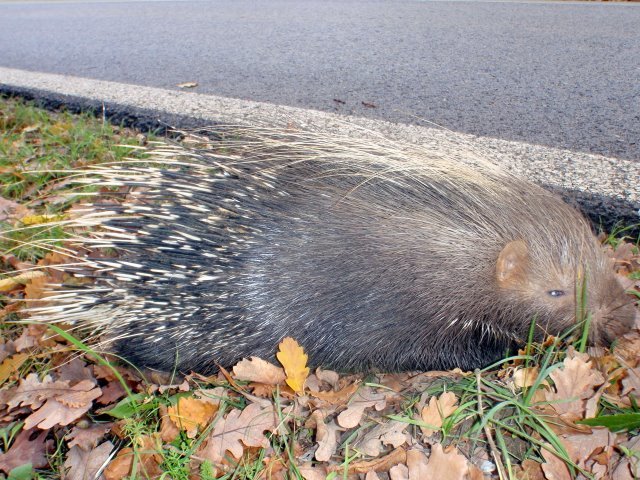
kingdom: Animalia
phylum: Chordata
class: Mammalia
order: Rodentia
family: Hystricidae
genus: Hystrix
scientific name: Hystrix cristata
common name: Crested porcupine
